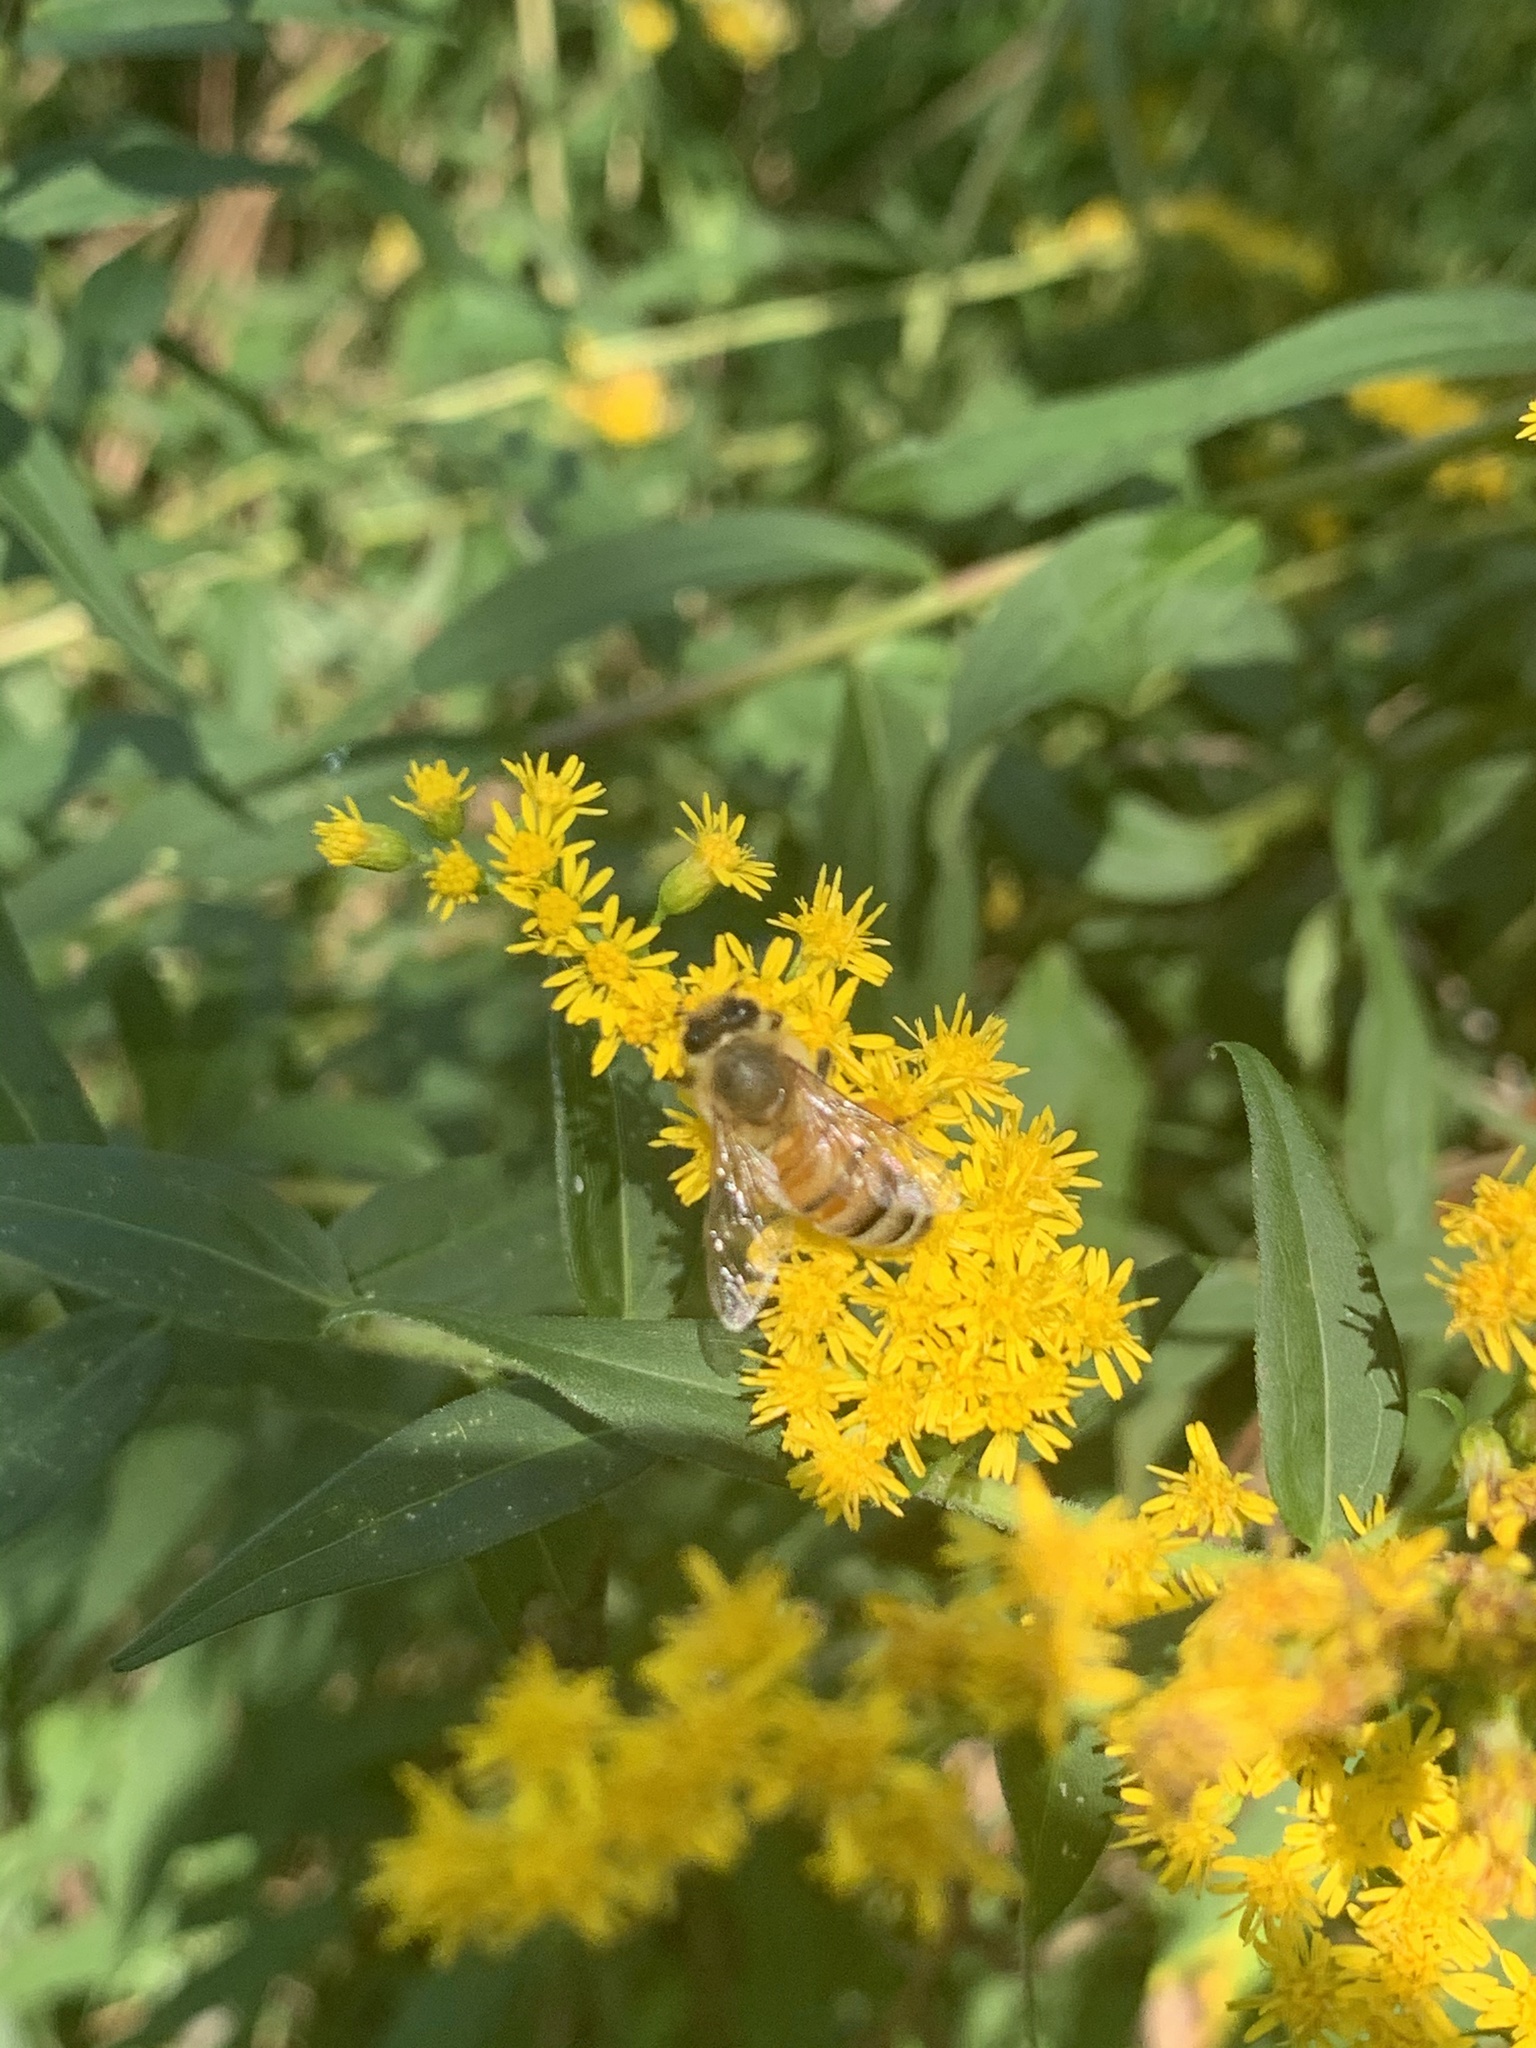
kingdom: Animalia
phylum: Arthropoda
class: Insecta
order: Hymenoptera
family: Apidae
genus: Apis
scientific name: Apis mellifera
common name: Honey bee
